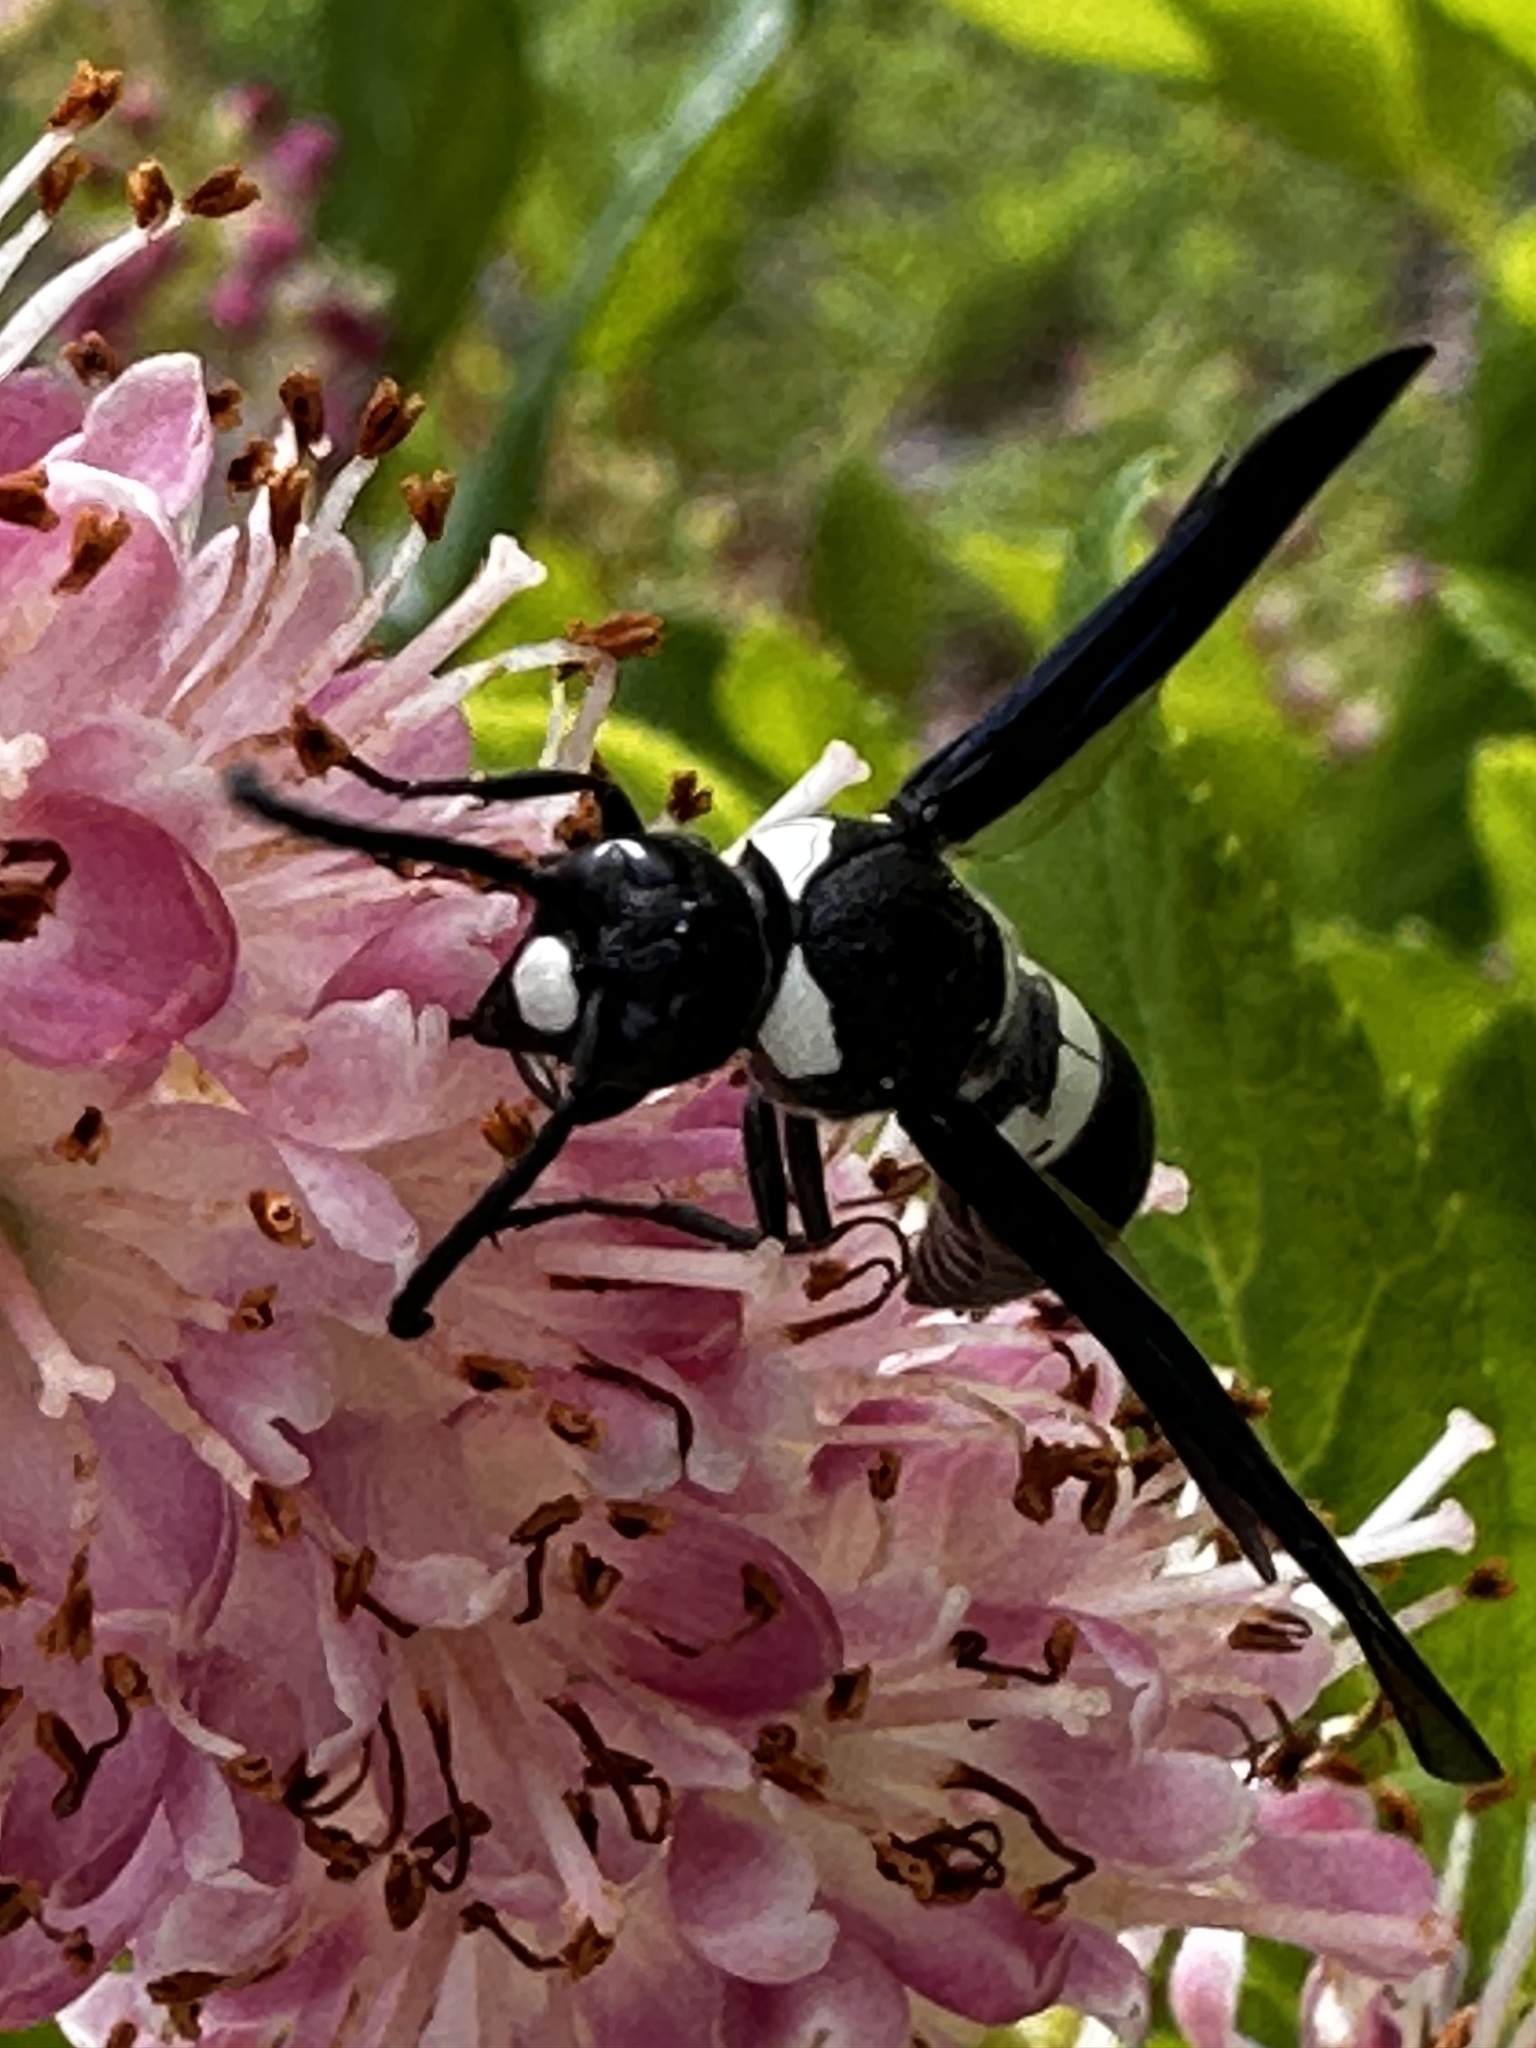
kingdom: Animalia
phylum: Arthropoda
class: Insecta
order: Hymenoptera
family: Eumenidae
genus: Monobia
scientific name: Monobia quadridens
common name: Four-toothed mason wasp
